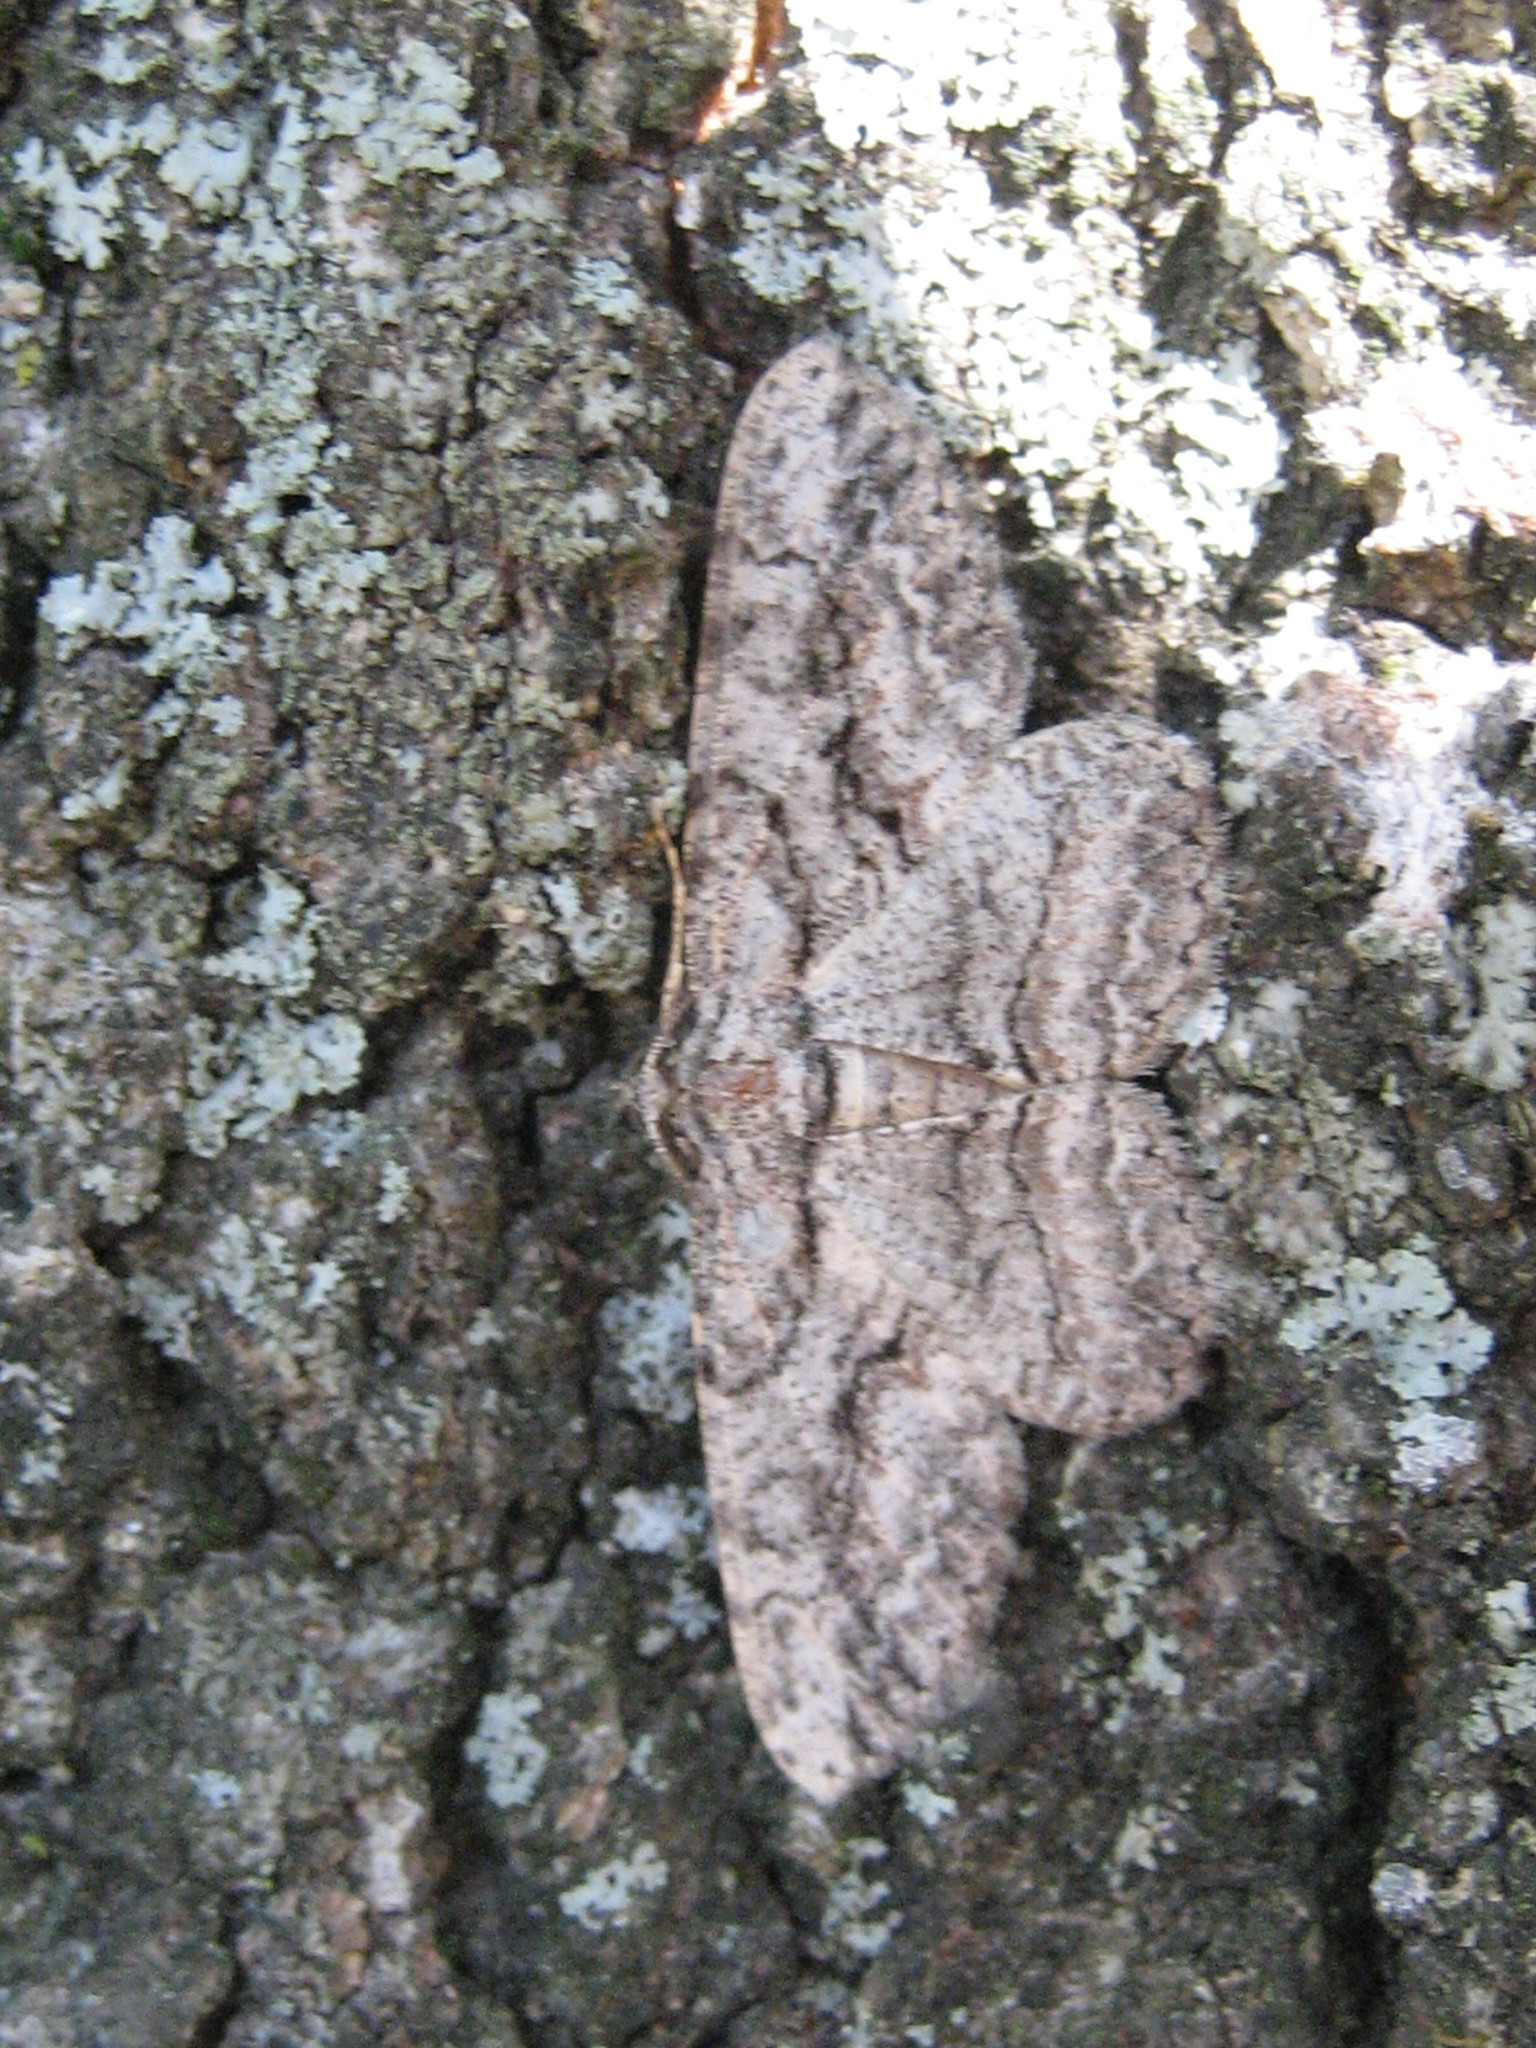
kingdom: Animalia
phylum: Arthropoda
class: Insecta
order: Lepidoptera
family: Geometridae
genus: Anavitrinella
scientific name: Anavitrinella pampinaria
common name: Common gray
